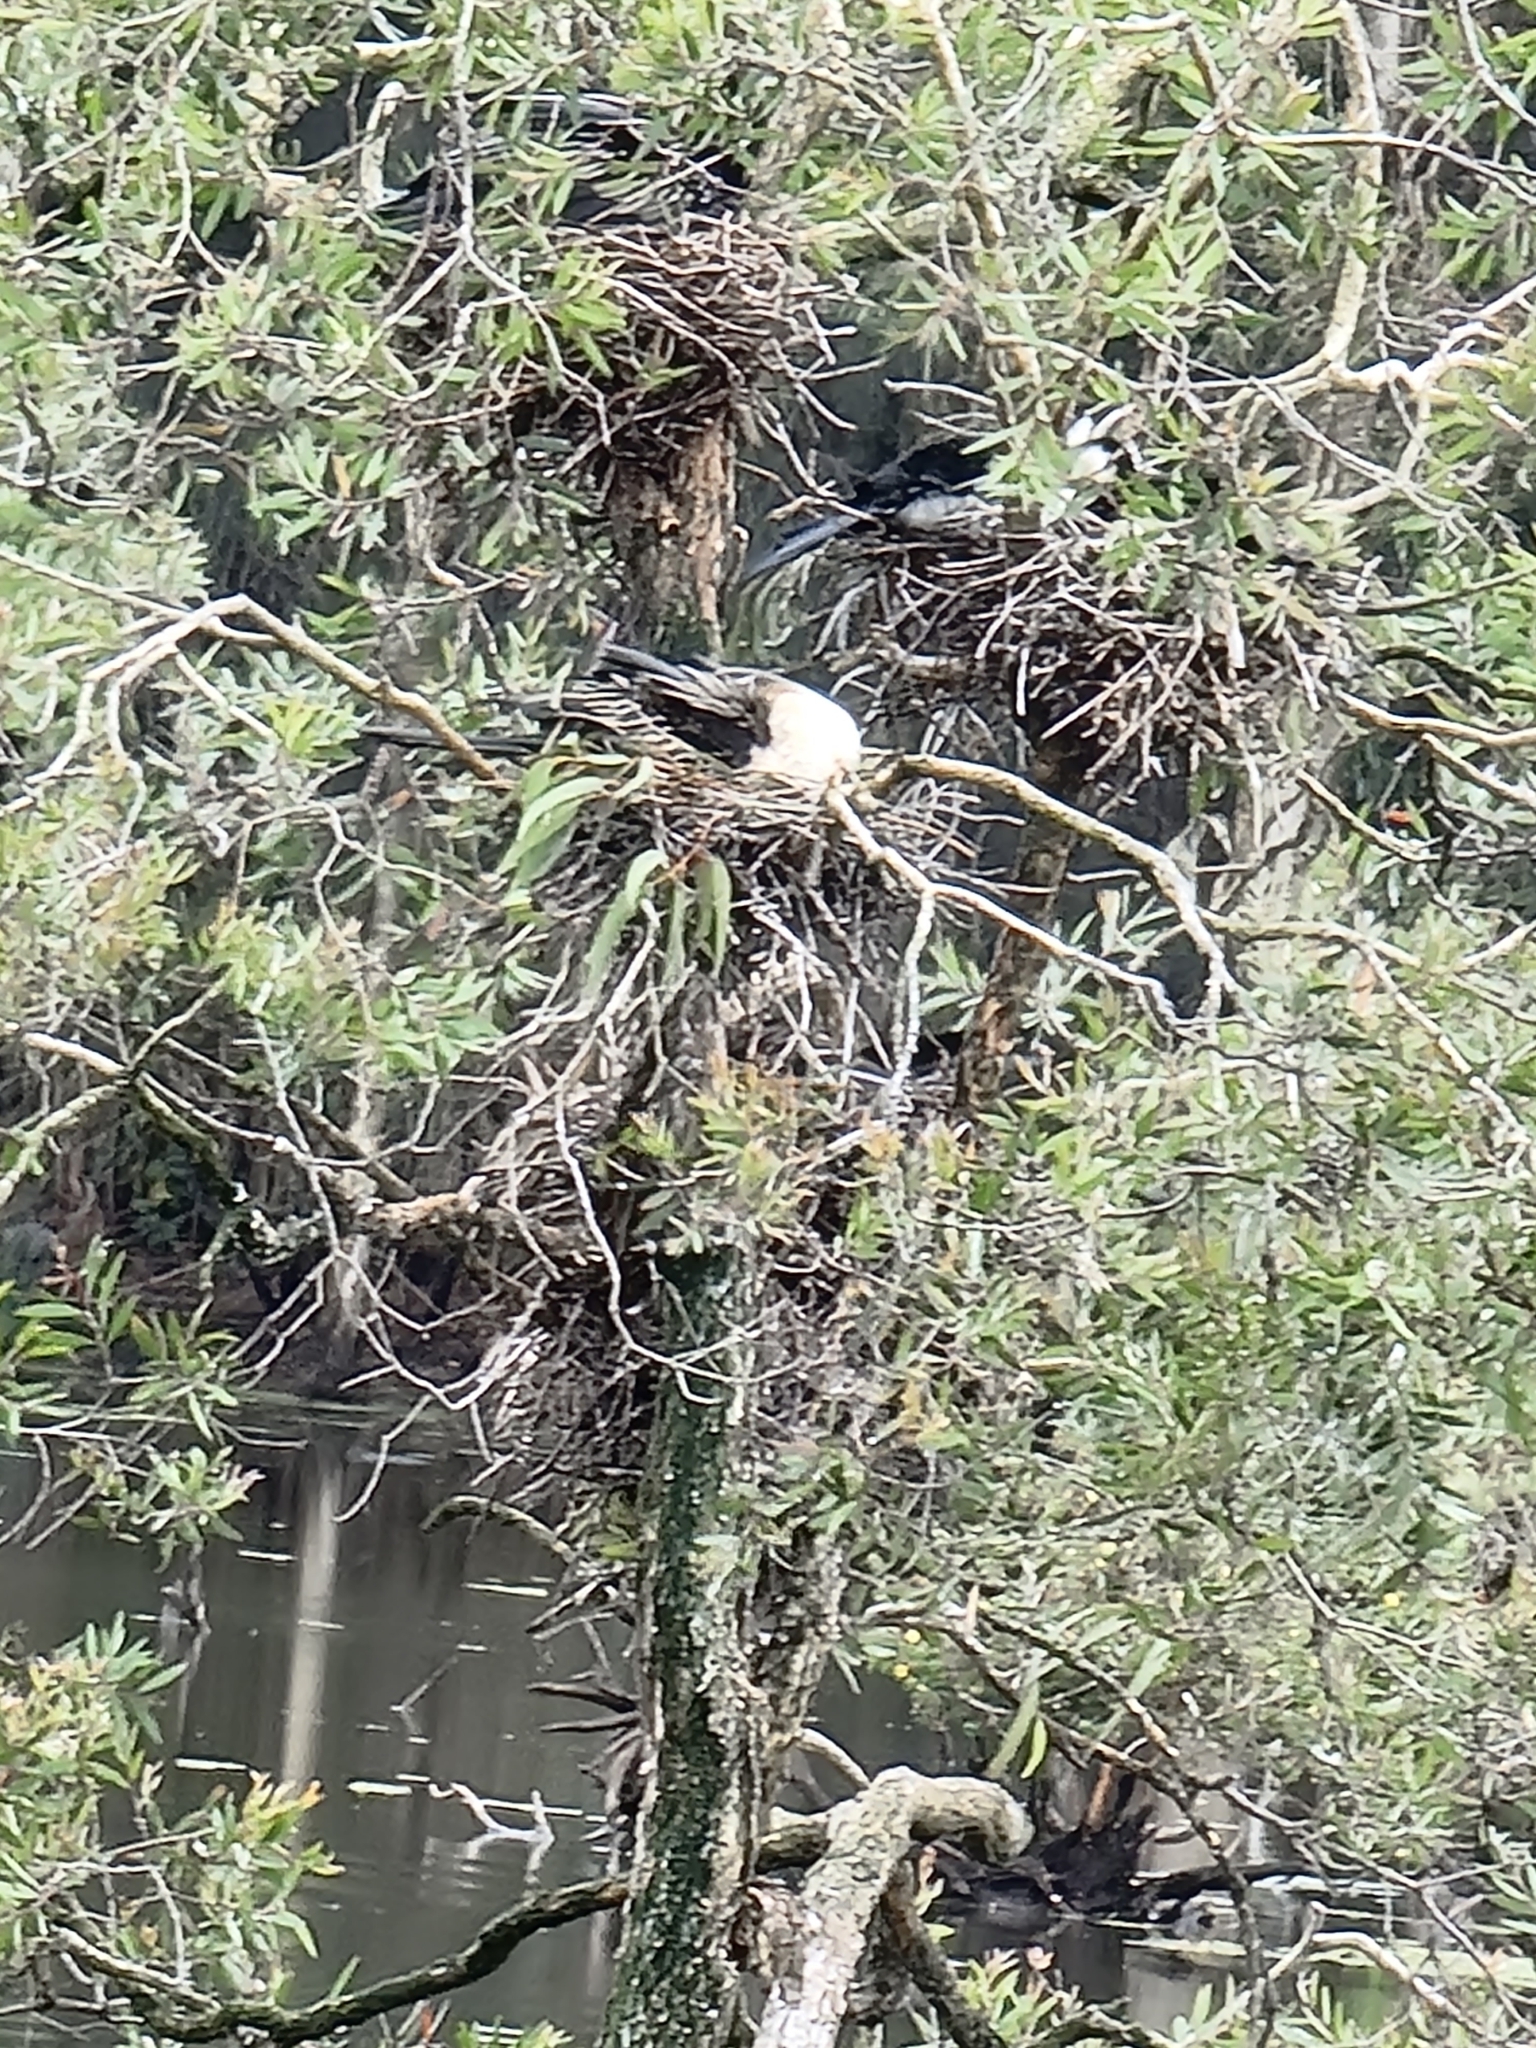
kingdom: Animalia
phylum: Chordata
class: Aves
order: Suliformes
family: Anhingidae
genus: Anhinga
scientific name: Anhinga novaehollandiae
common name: Australasian darter
